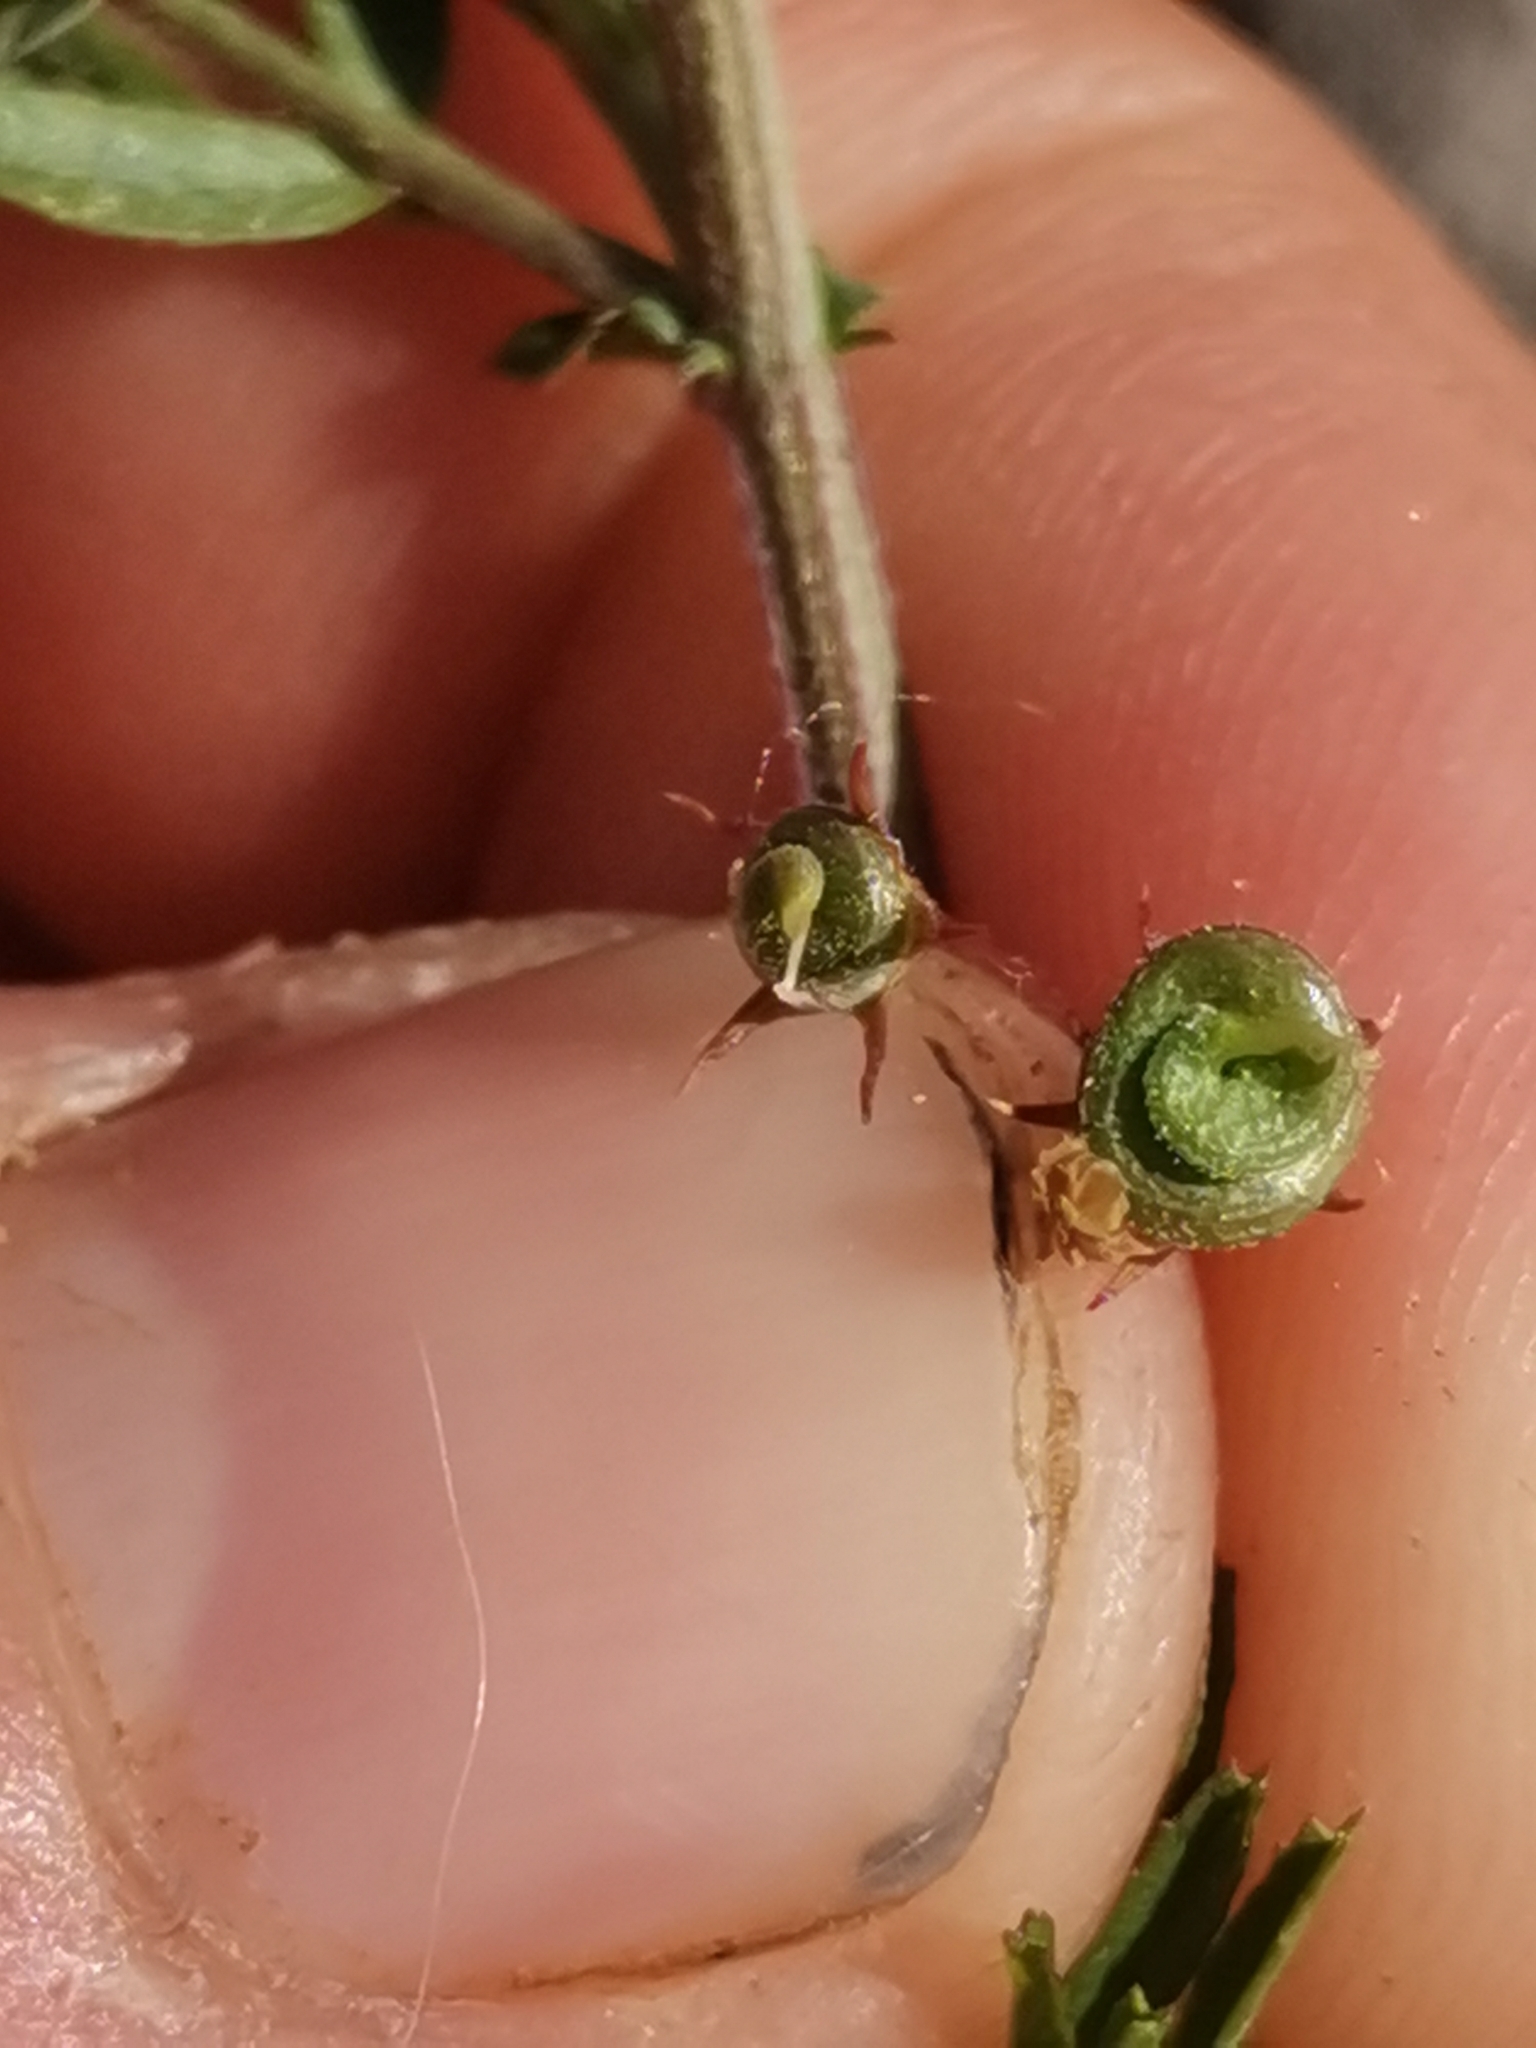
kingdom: Plantae
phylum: Tracheophyta
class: Magnoliopsida
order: Fabales
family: Fabaceae
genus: Medicago
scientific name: Medicago prostrata
